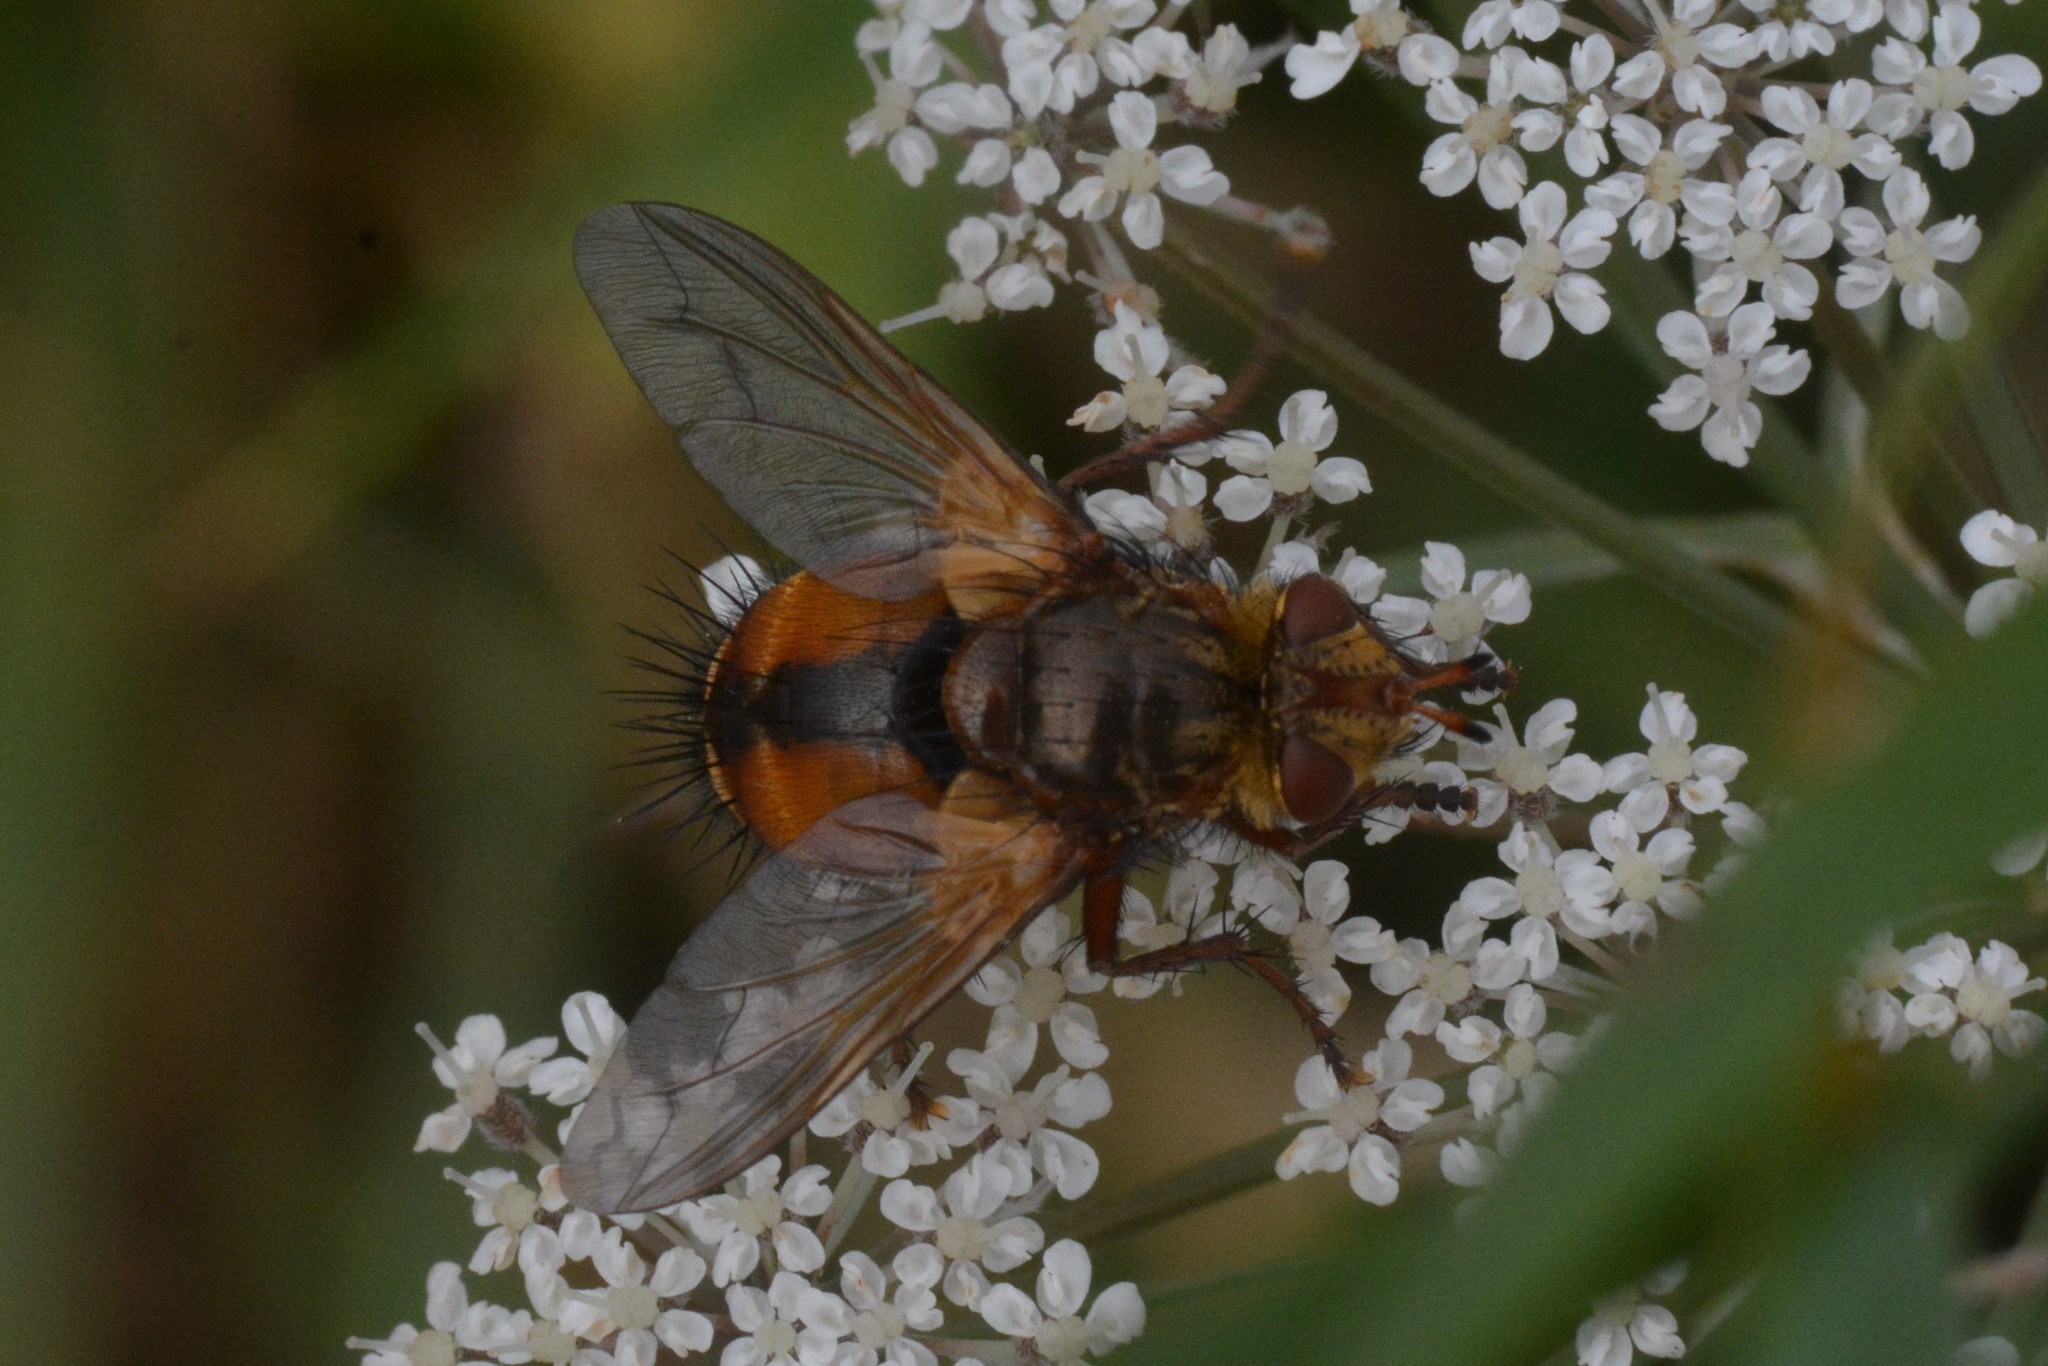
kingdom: Animalia
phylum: Arthropoda
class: Insecta
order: Diptera
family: Tachinidae
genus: Tachina
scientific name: Tachina fera
